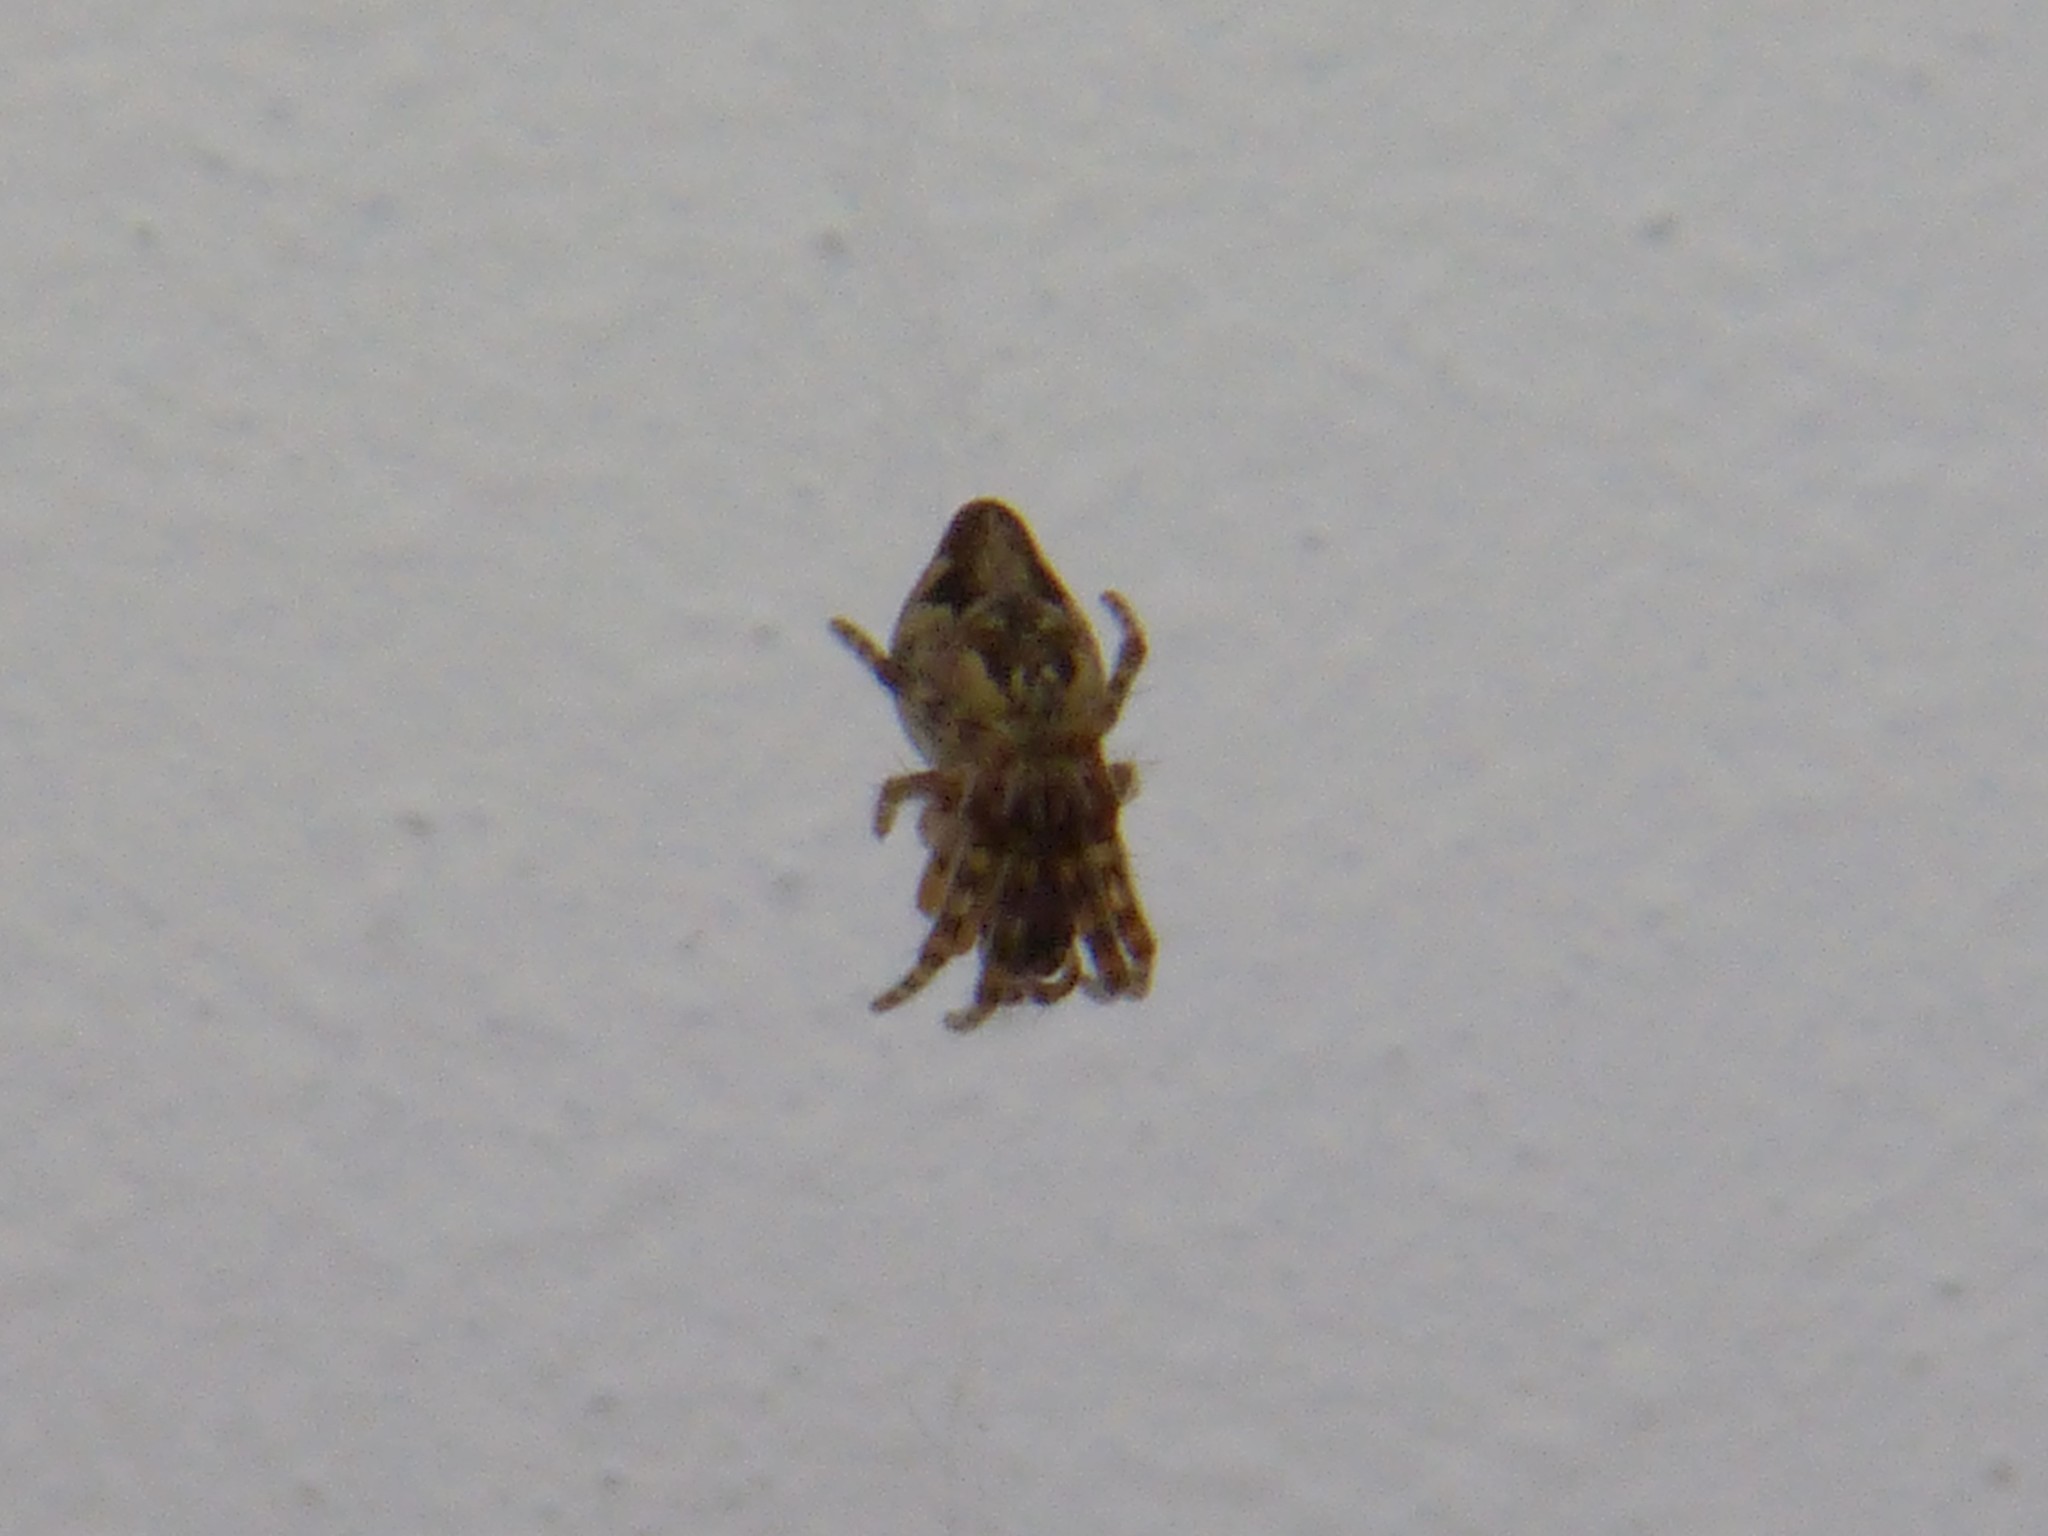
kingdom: Animalia
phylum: Arthropoda
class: Arachnida
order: Araneae
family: Araneidae
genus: Cyclosa
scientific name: Cyclosa conica
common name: Conical trashline orbweaver
